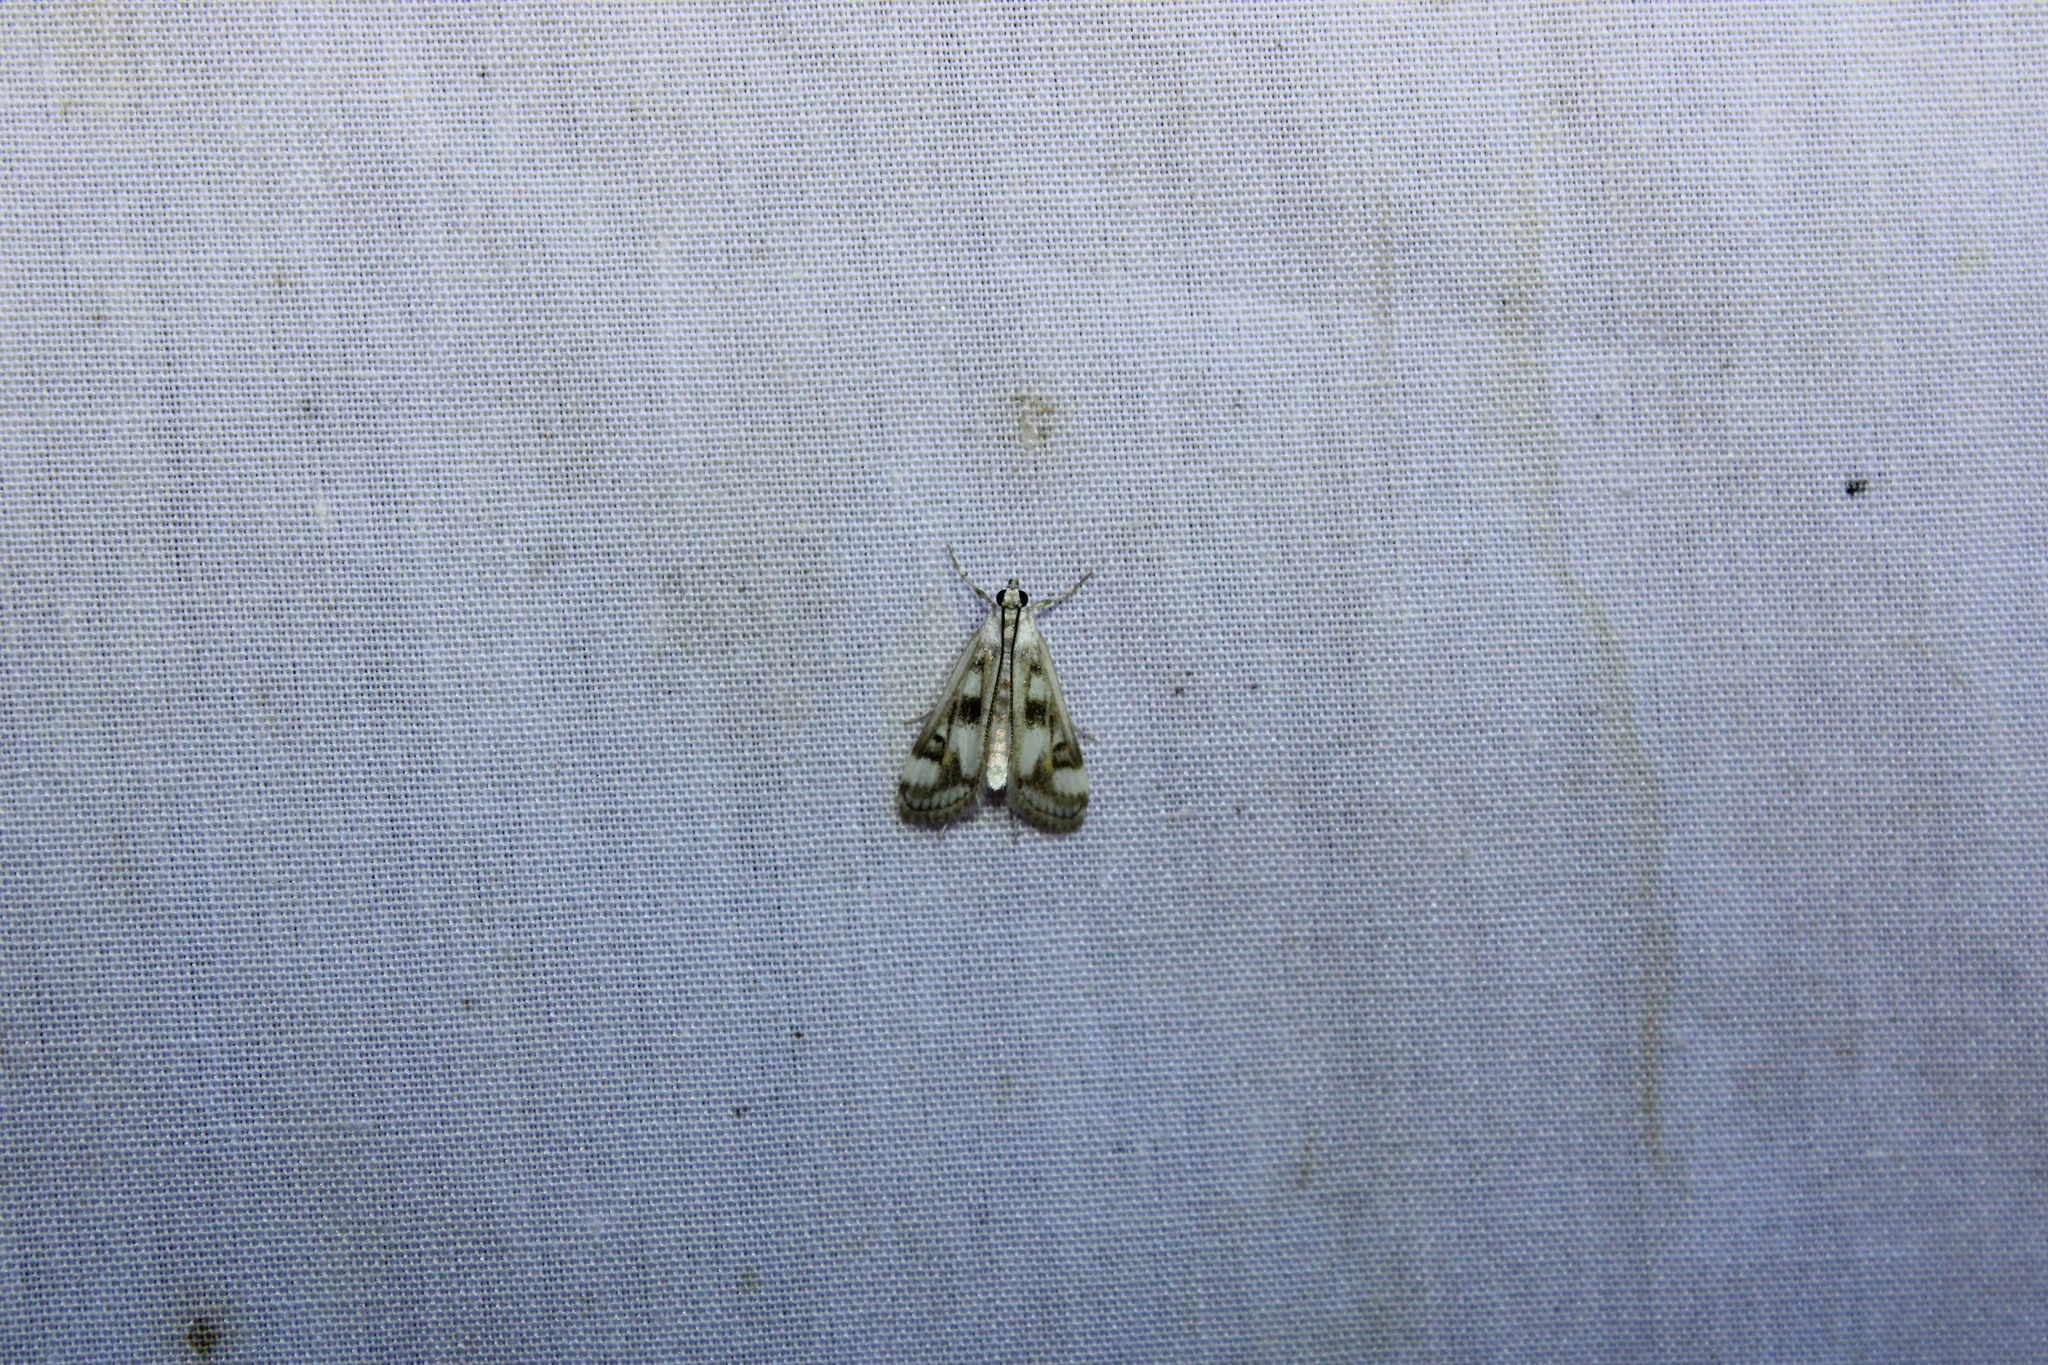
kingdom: Animalia
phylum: Arthropoda
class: Insecta
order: Lepidoptera
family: Crambidae
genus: Parapoynx
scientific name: Parapoynx maculalis
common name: Polymorphic pondweed moth
